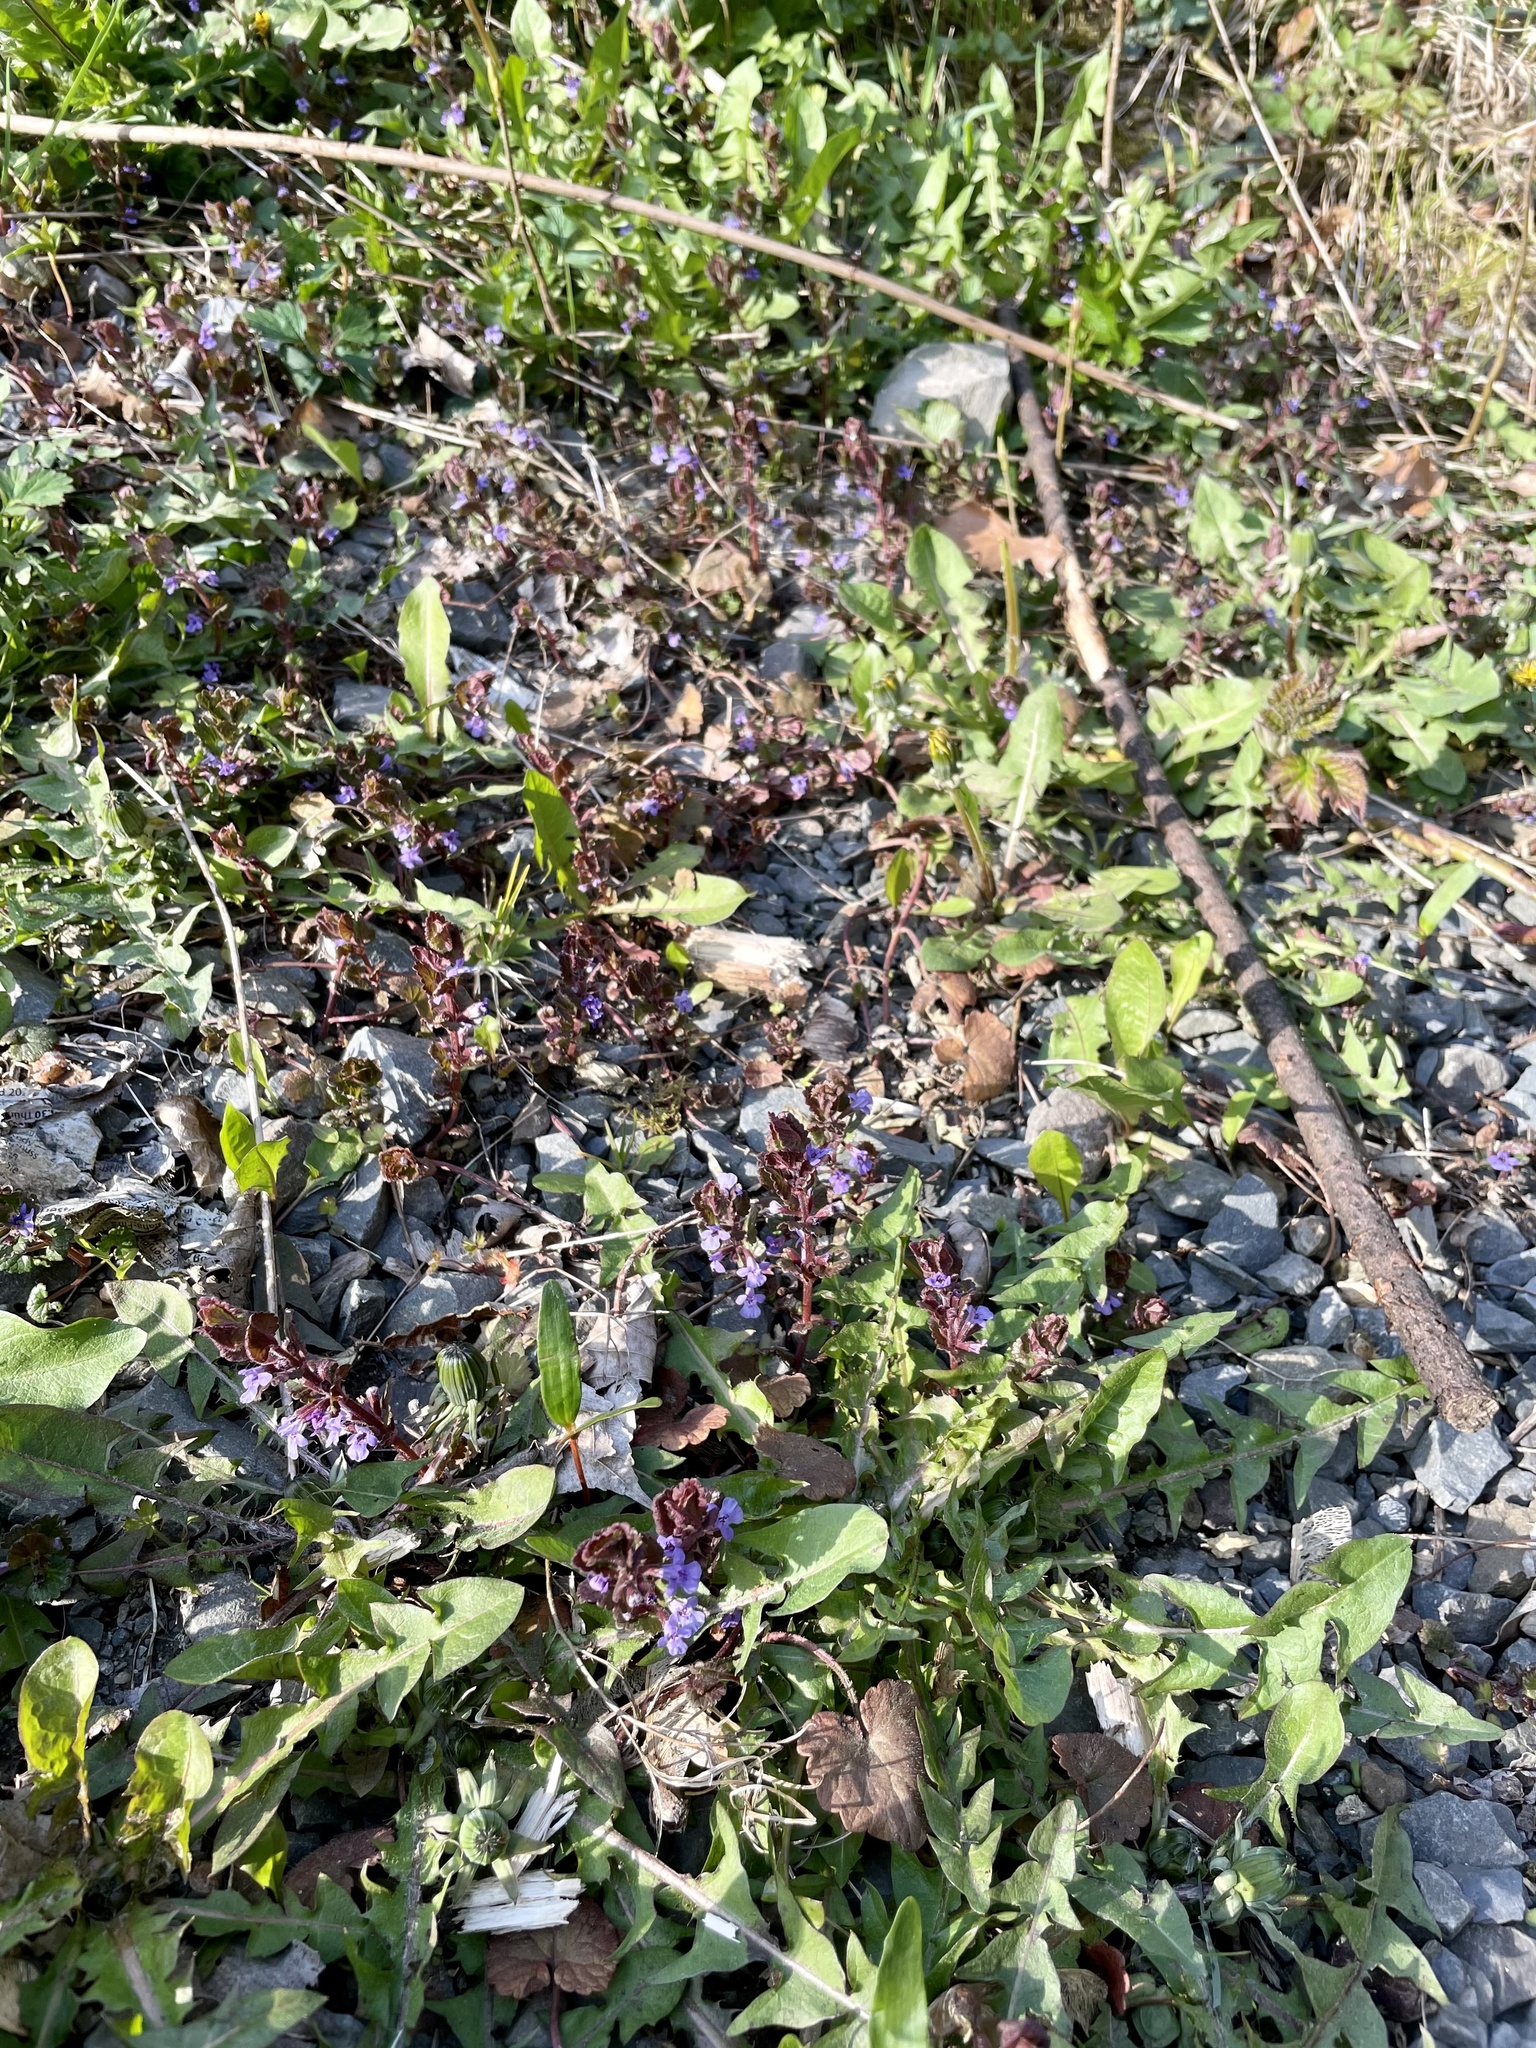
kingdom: Plantae
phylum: Tracheophyta
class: Magnoliopsida
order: Lamiales
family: Lamiaceae
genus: Glechoma
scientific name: Glechoma hederacea
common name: Ground ivy
